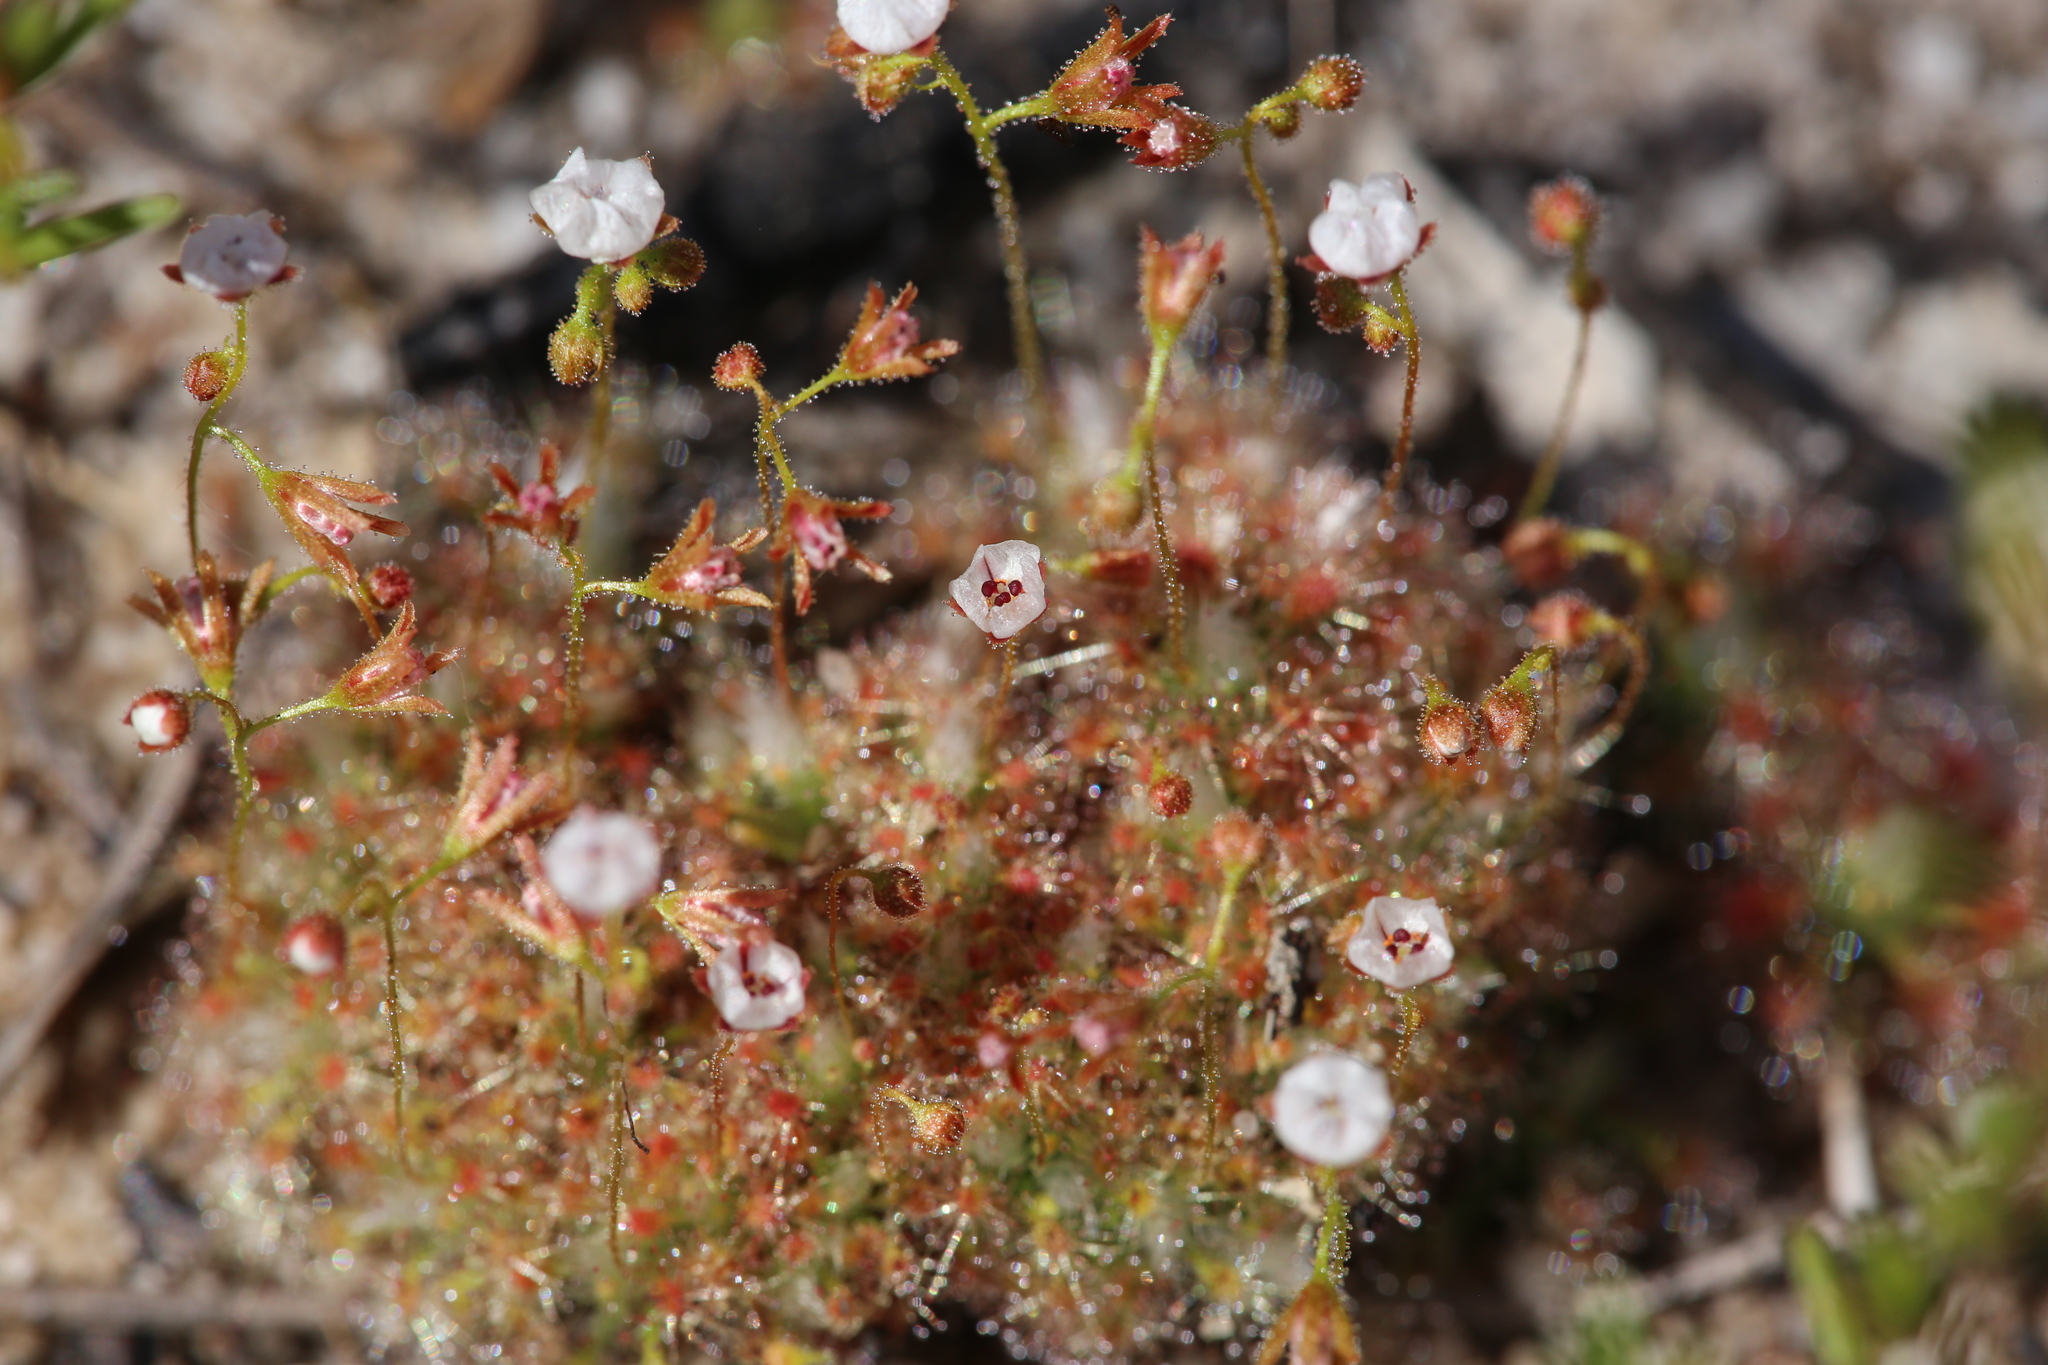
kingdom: Plantae
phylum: Tracheophyta
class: Magnoliopsida
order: Caryophyllales
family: Droseraceae
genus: Drosera
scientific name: Drosera patens
